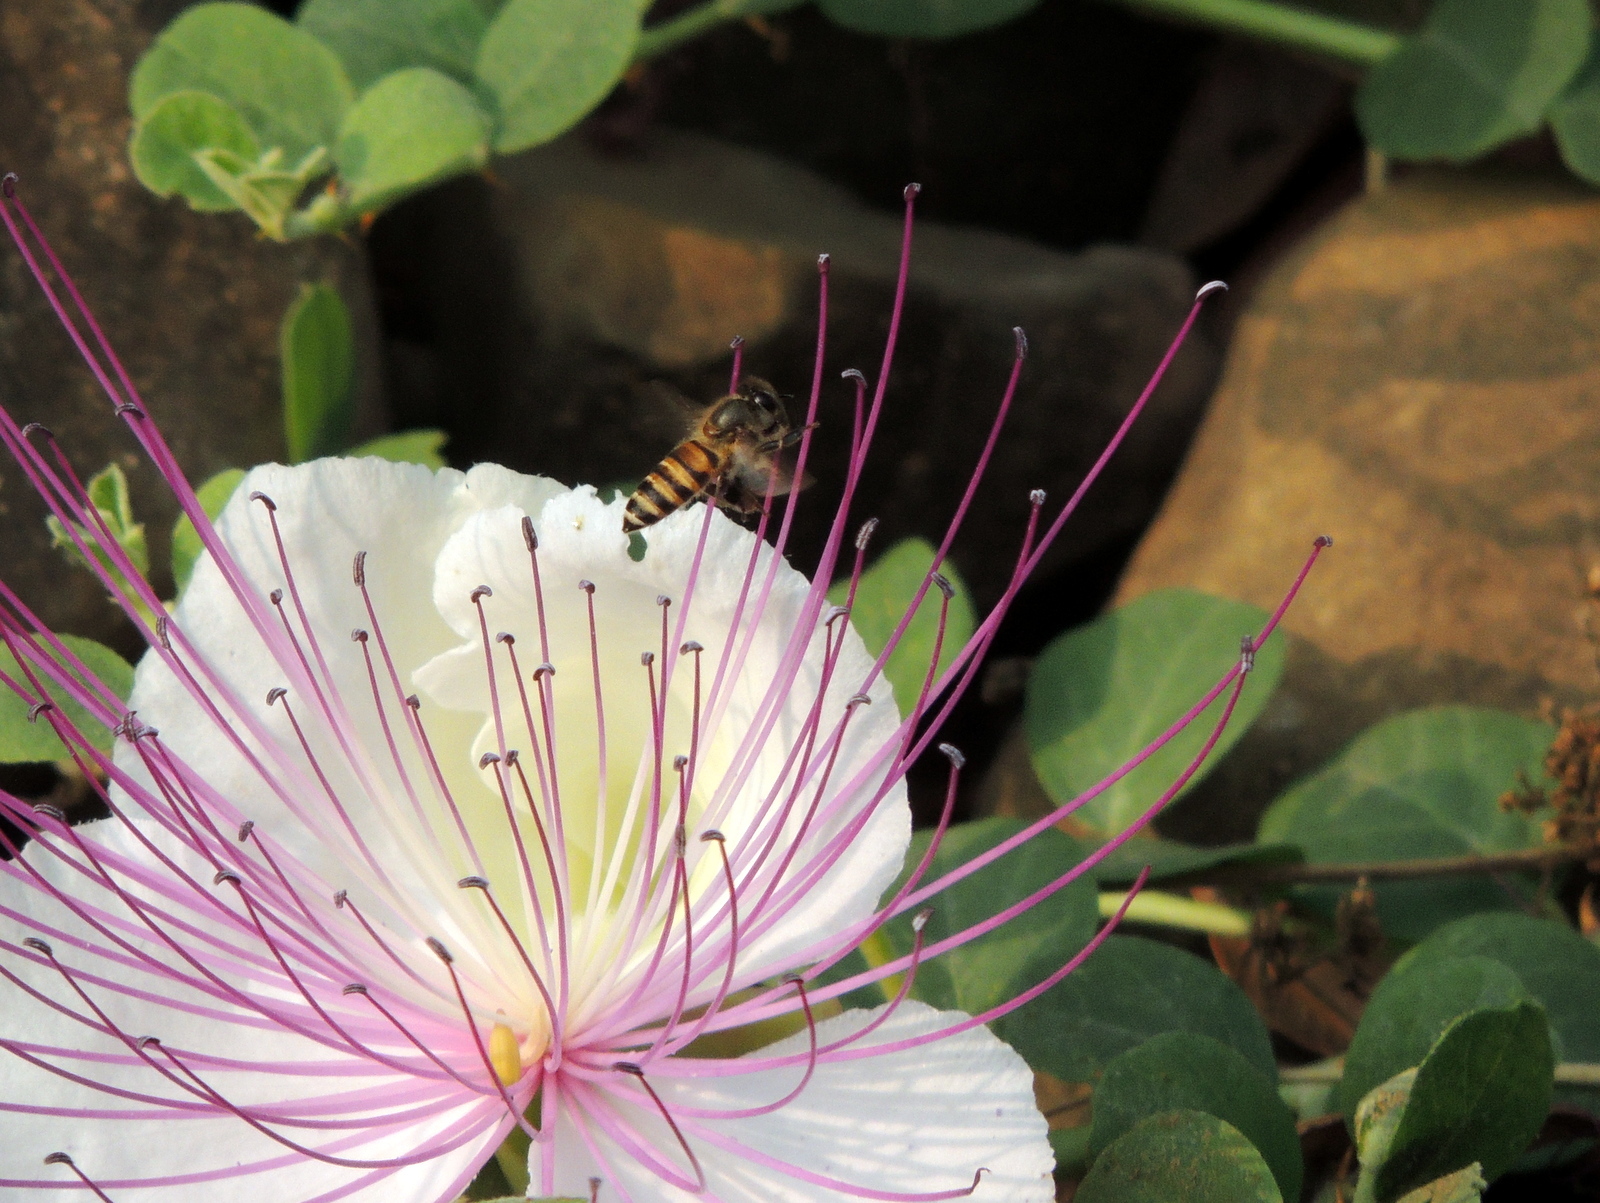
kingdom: Animalia
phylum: Arthropoda
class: Insecta
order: Hymenoptera
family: Apidae
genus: Apis
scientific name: Apis cerana
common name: Honey bee
